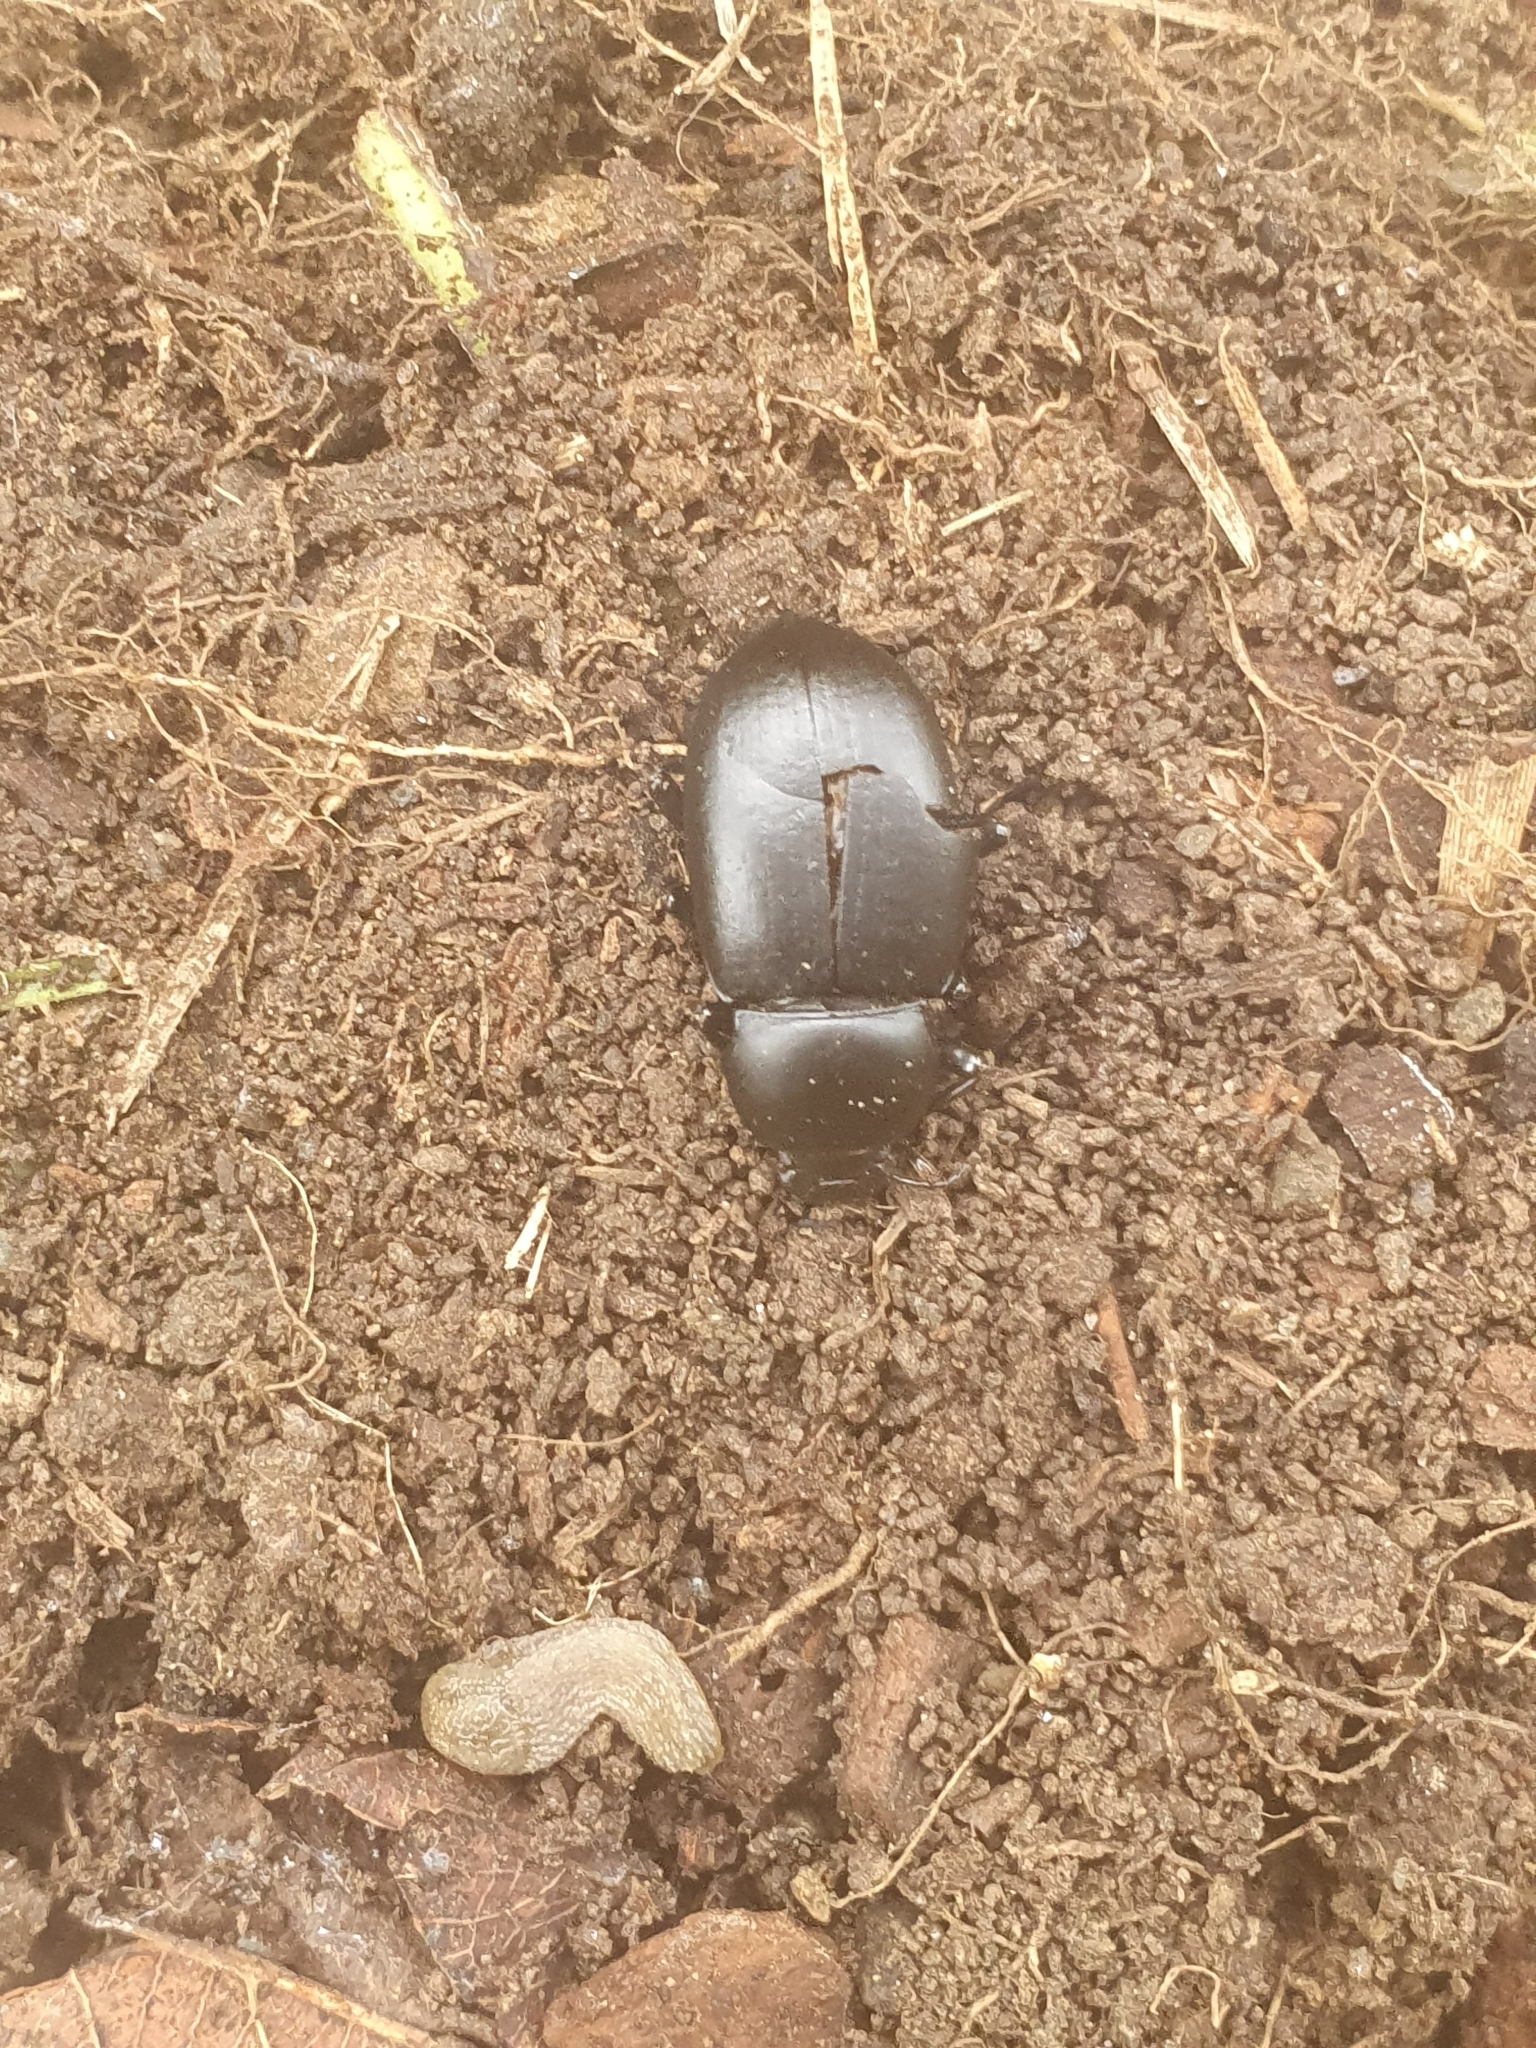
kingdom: Animalia
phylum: Arthropoda
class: Insecta
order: Coleoptera
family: Tenebrionidae
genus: Coelometopus
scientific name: Coelometopus clypeatus
